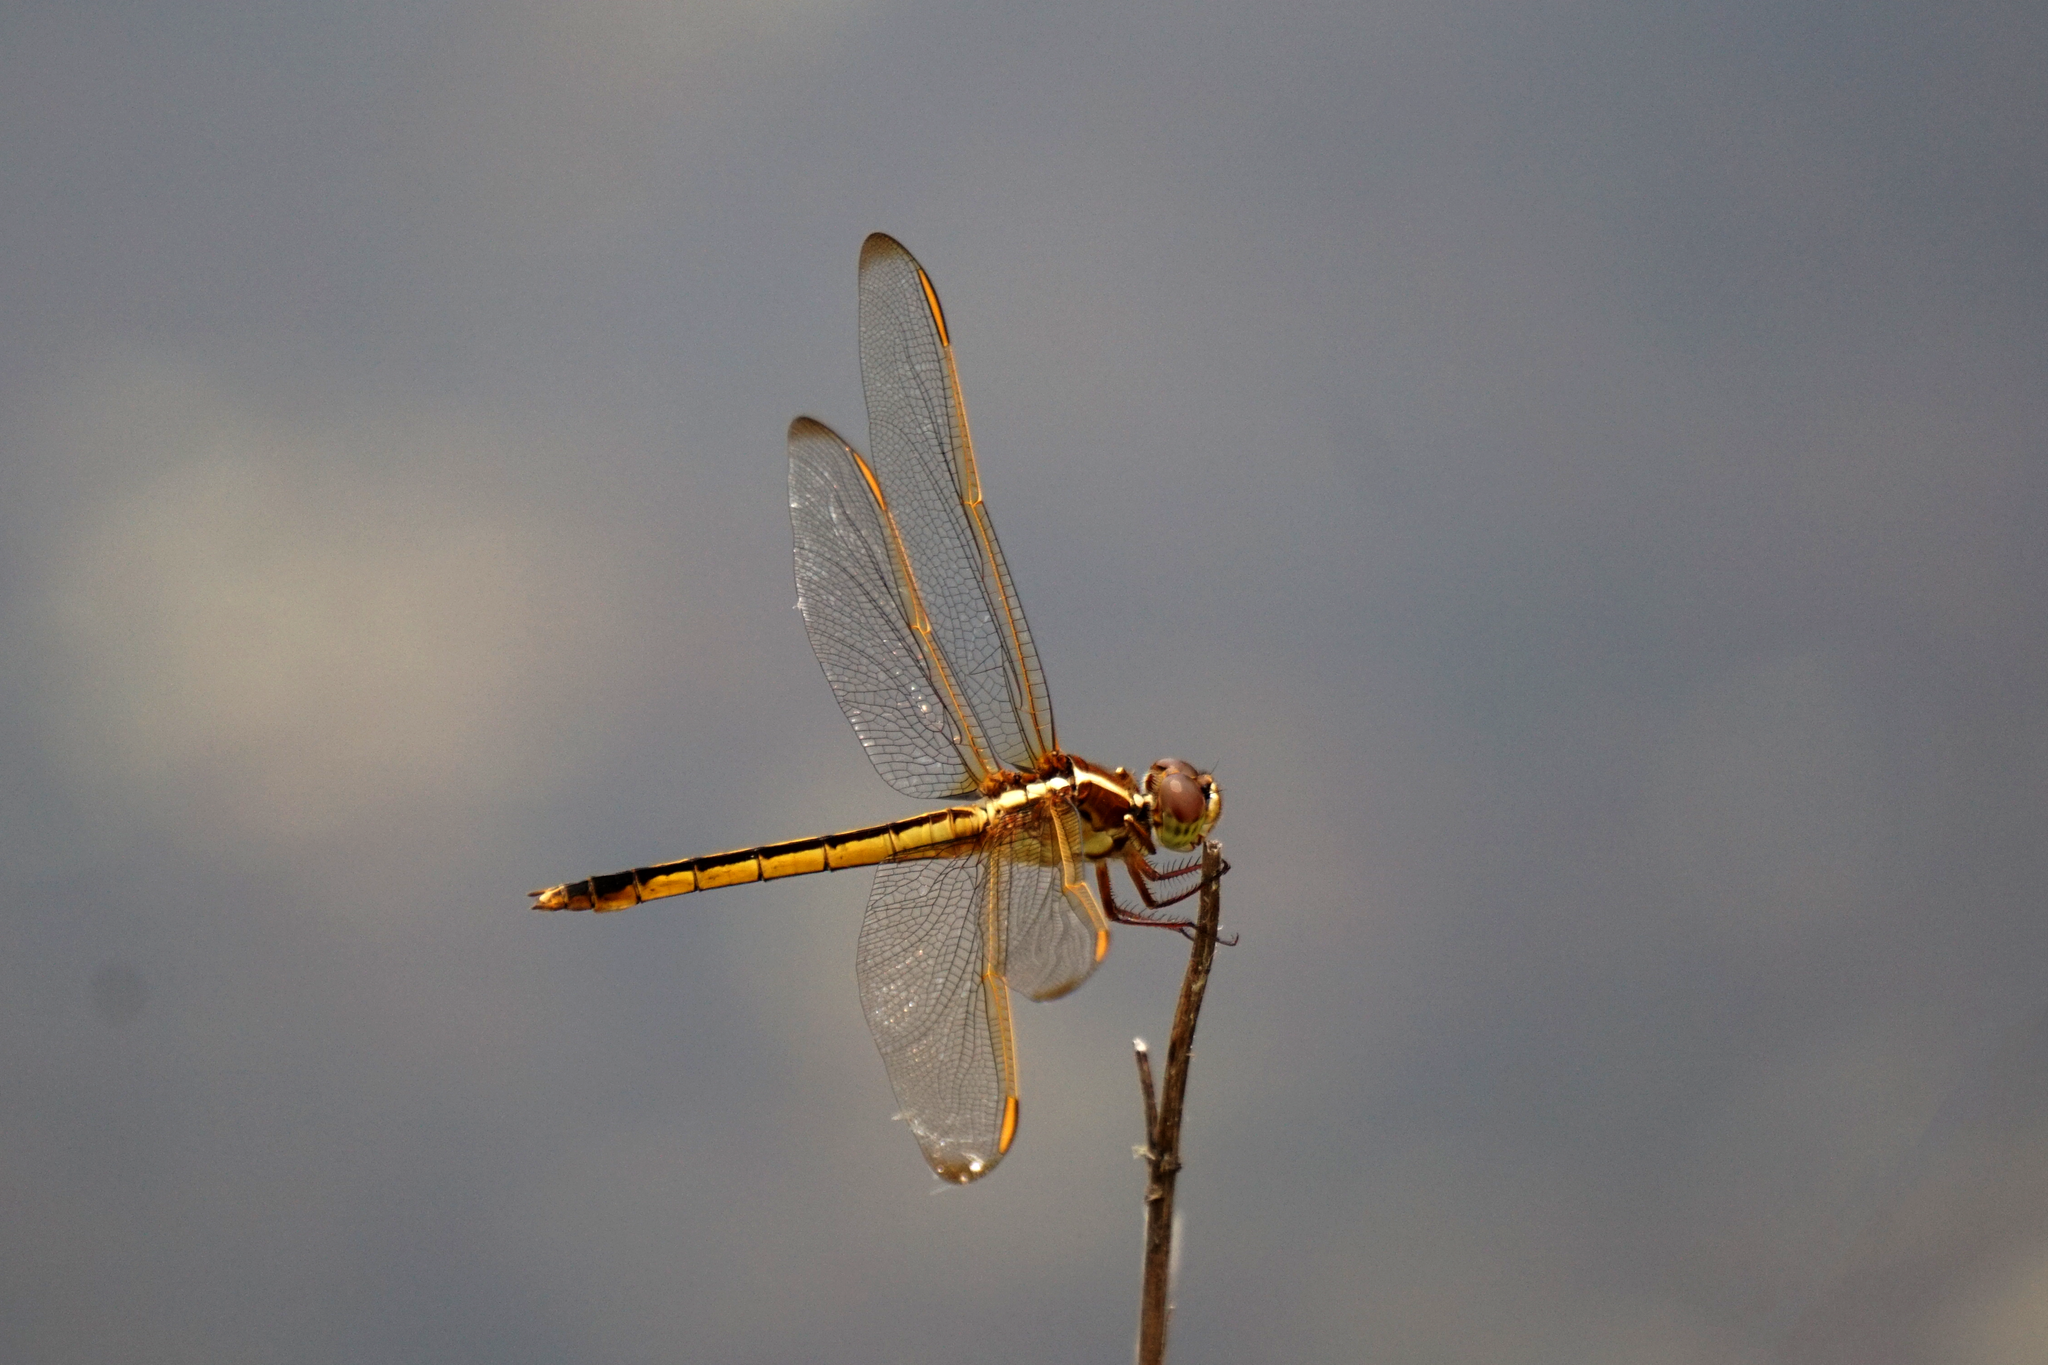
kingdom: Animalia
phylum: Arthropoda
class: Insecta
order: Odonata
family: Libellulidae
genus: Libellula
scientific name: Libellula needhami
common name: Needham's skimmer
